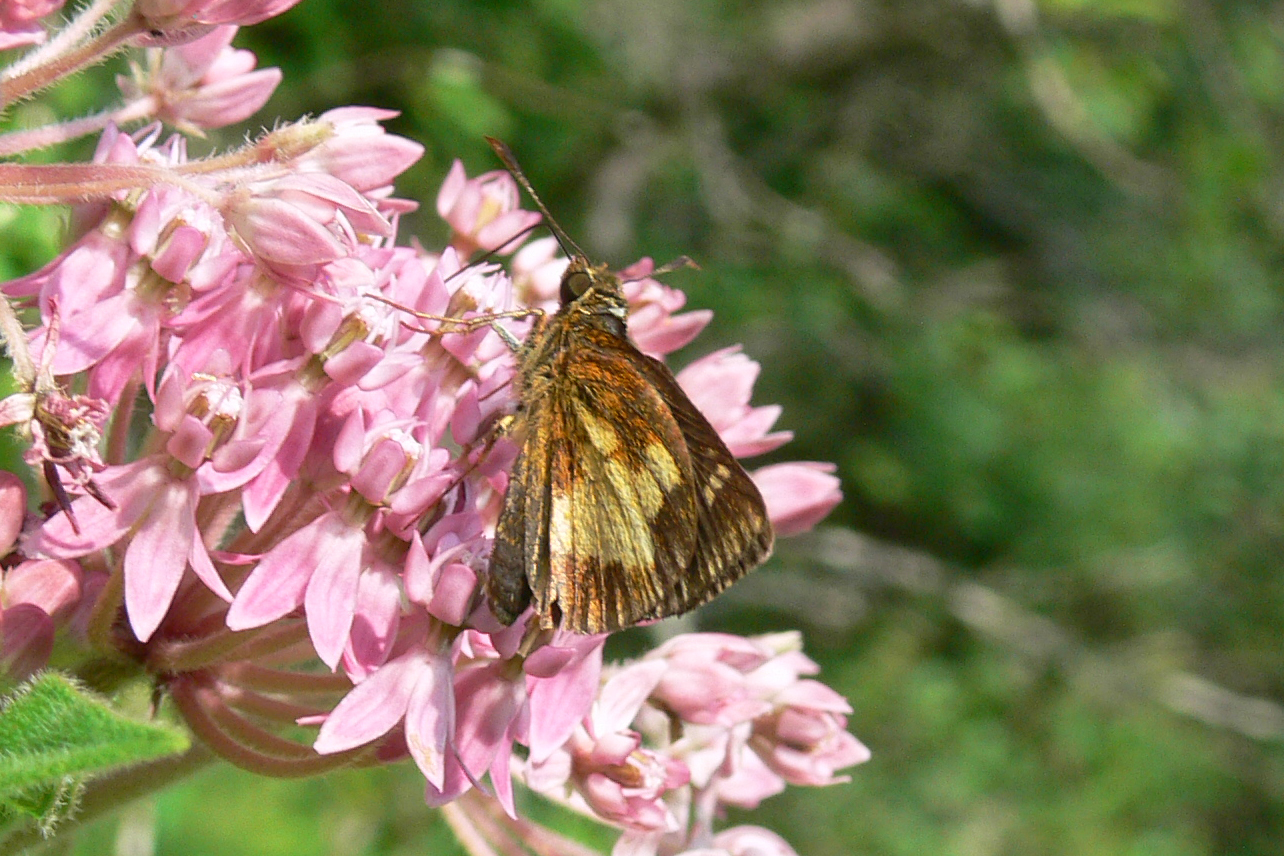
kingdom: Animalia
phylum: Arthropoda
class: Insecta
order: Lepidoptera
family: Hesperiidae
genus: Poanes
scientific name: Poanes massasoit
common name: Mulberrywing
